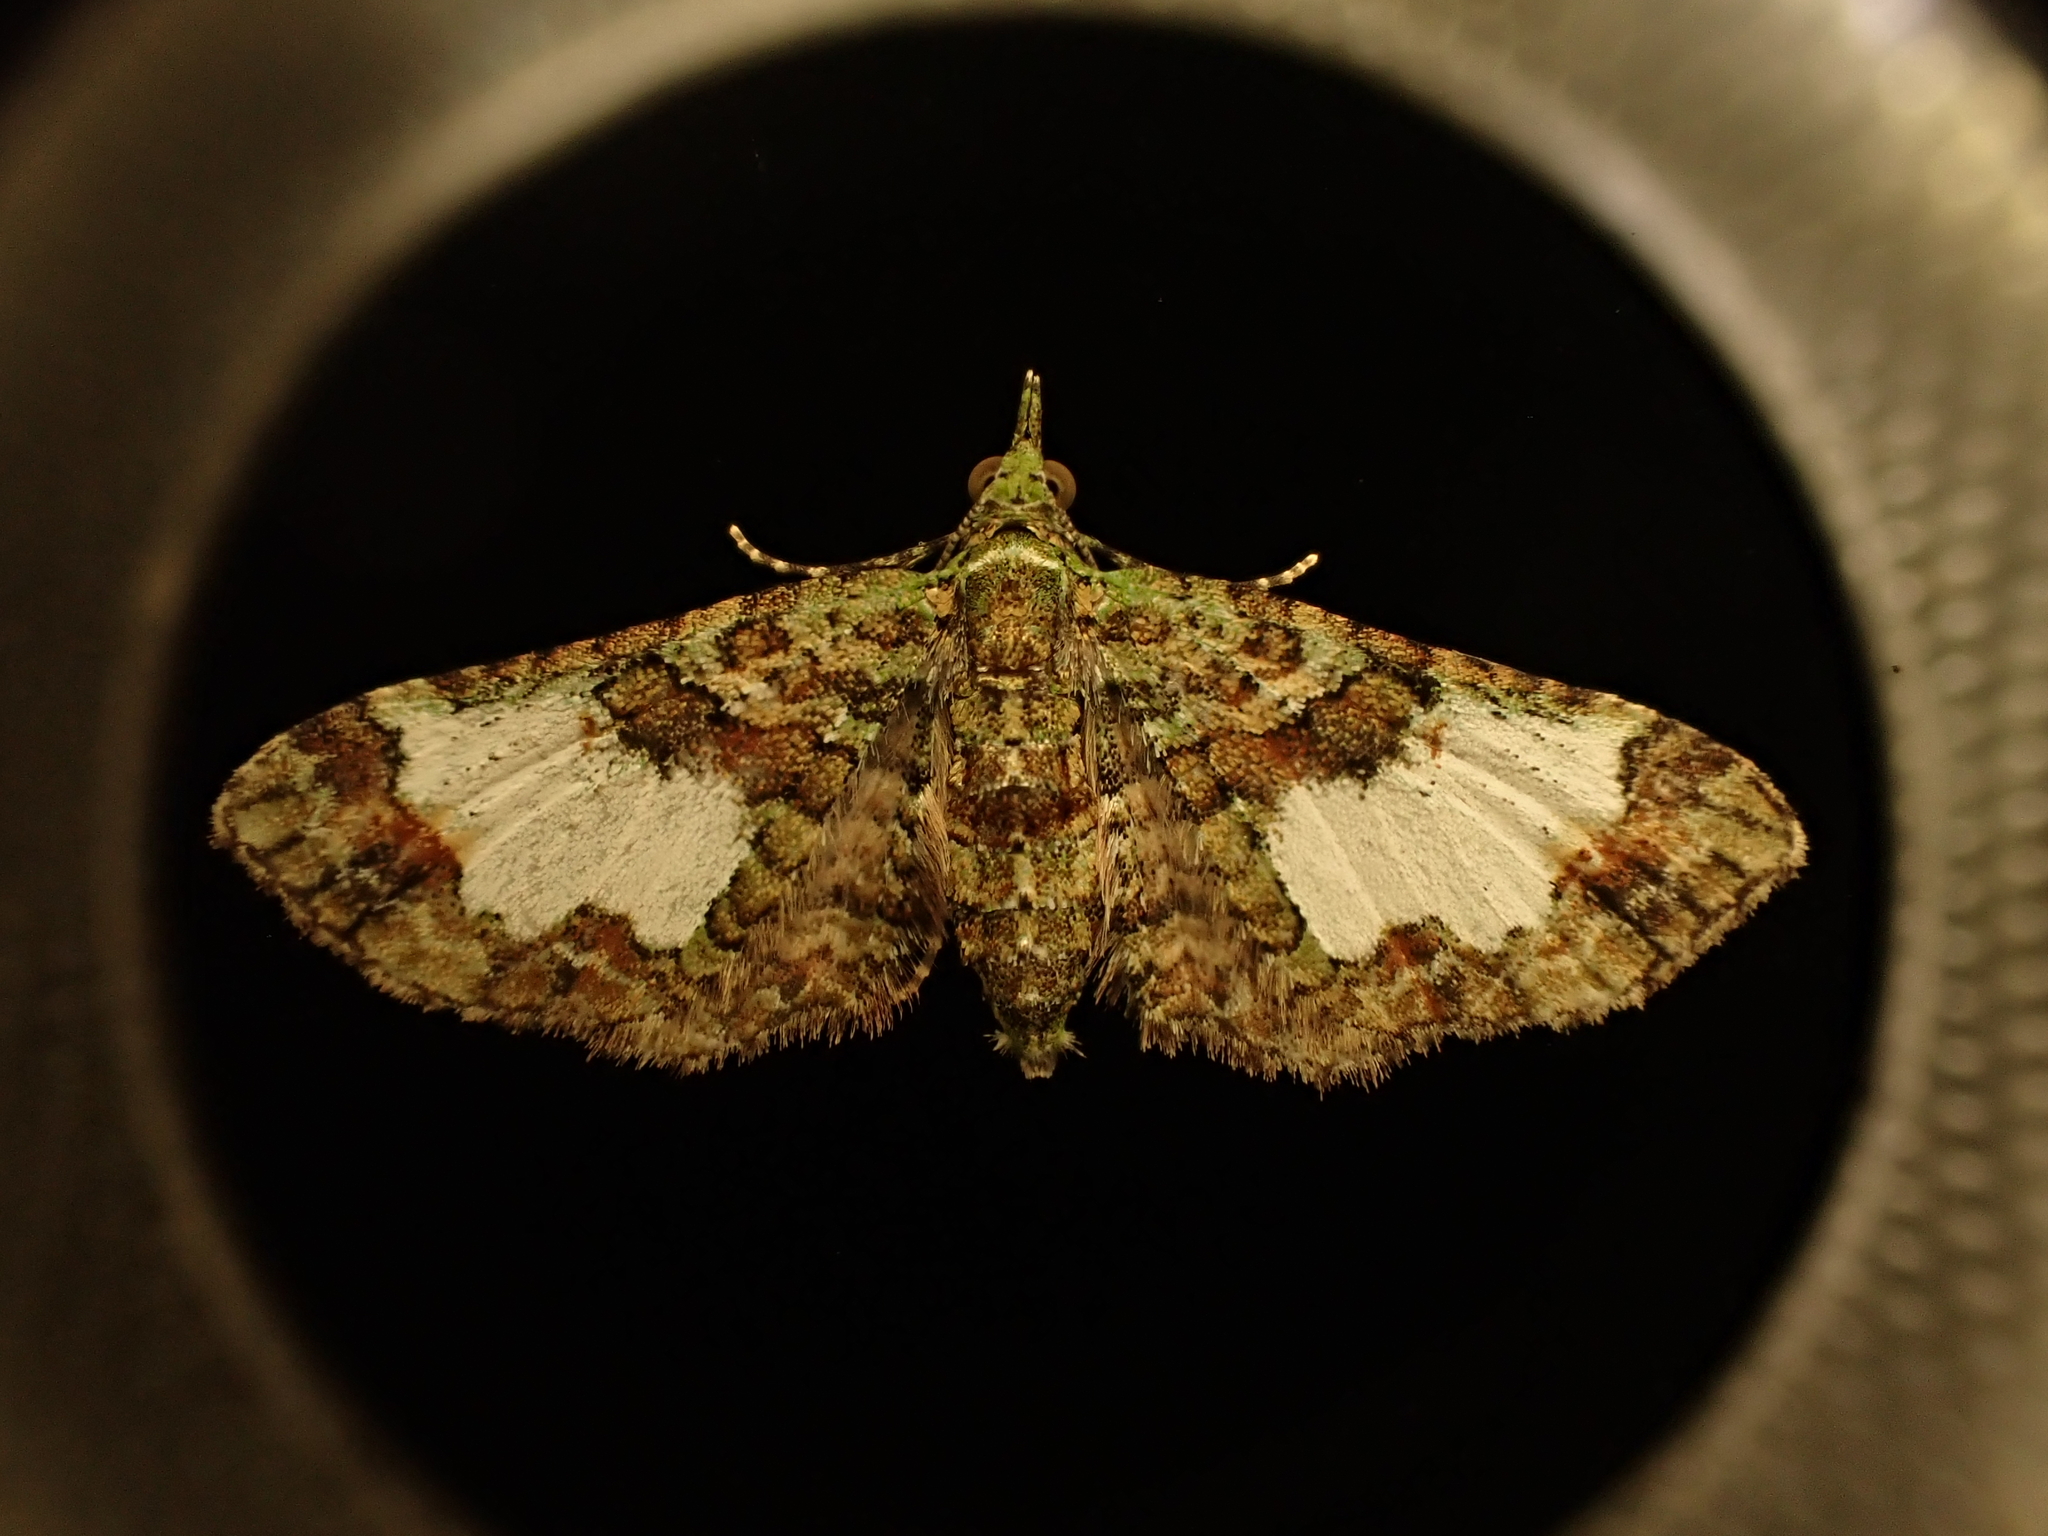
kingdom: Animalia
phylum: Arthropoda
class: Insecta
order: Lepidoptera
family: Geometridae
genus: Idaea
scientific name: Idaea mutanda
